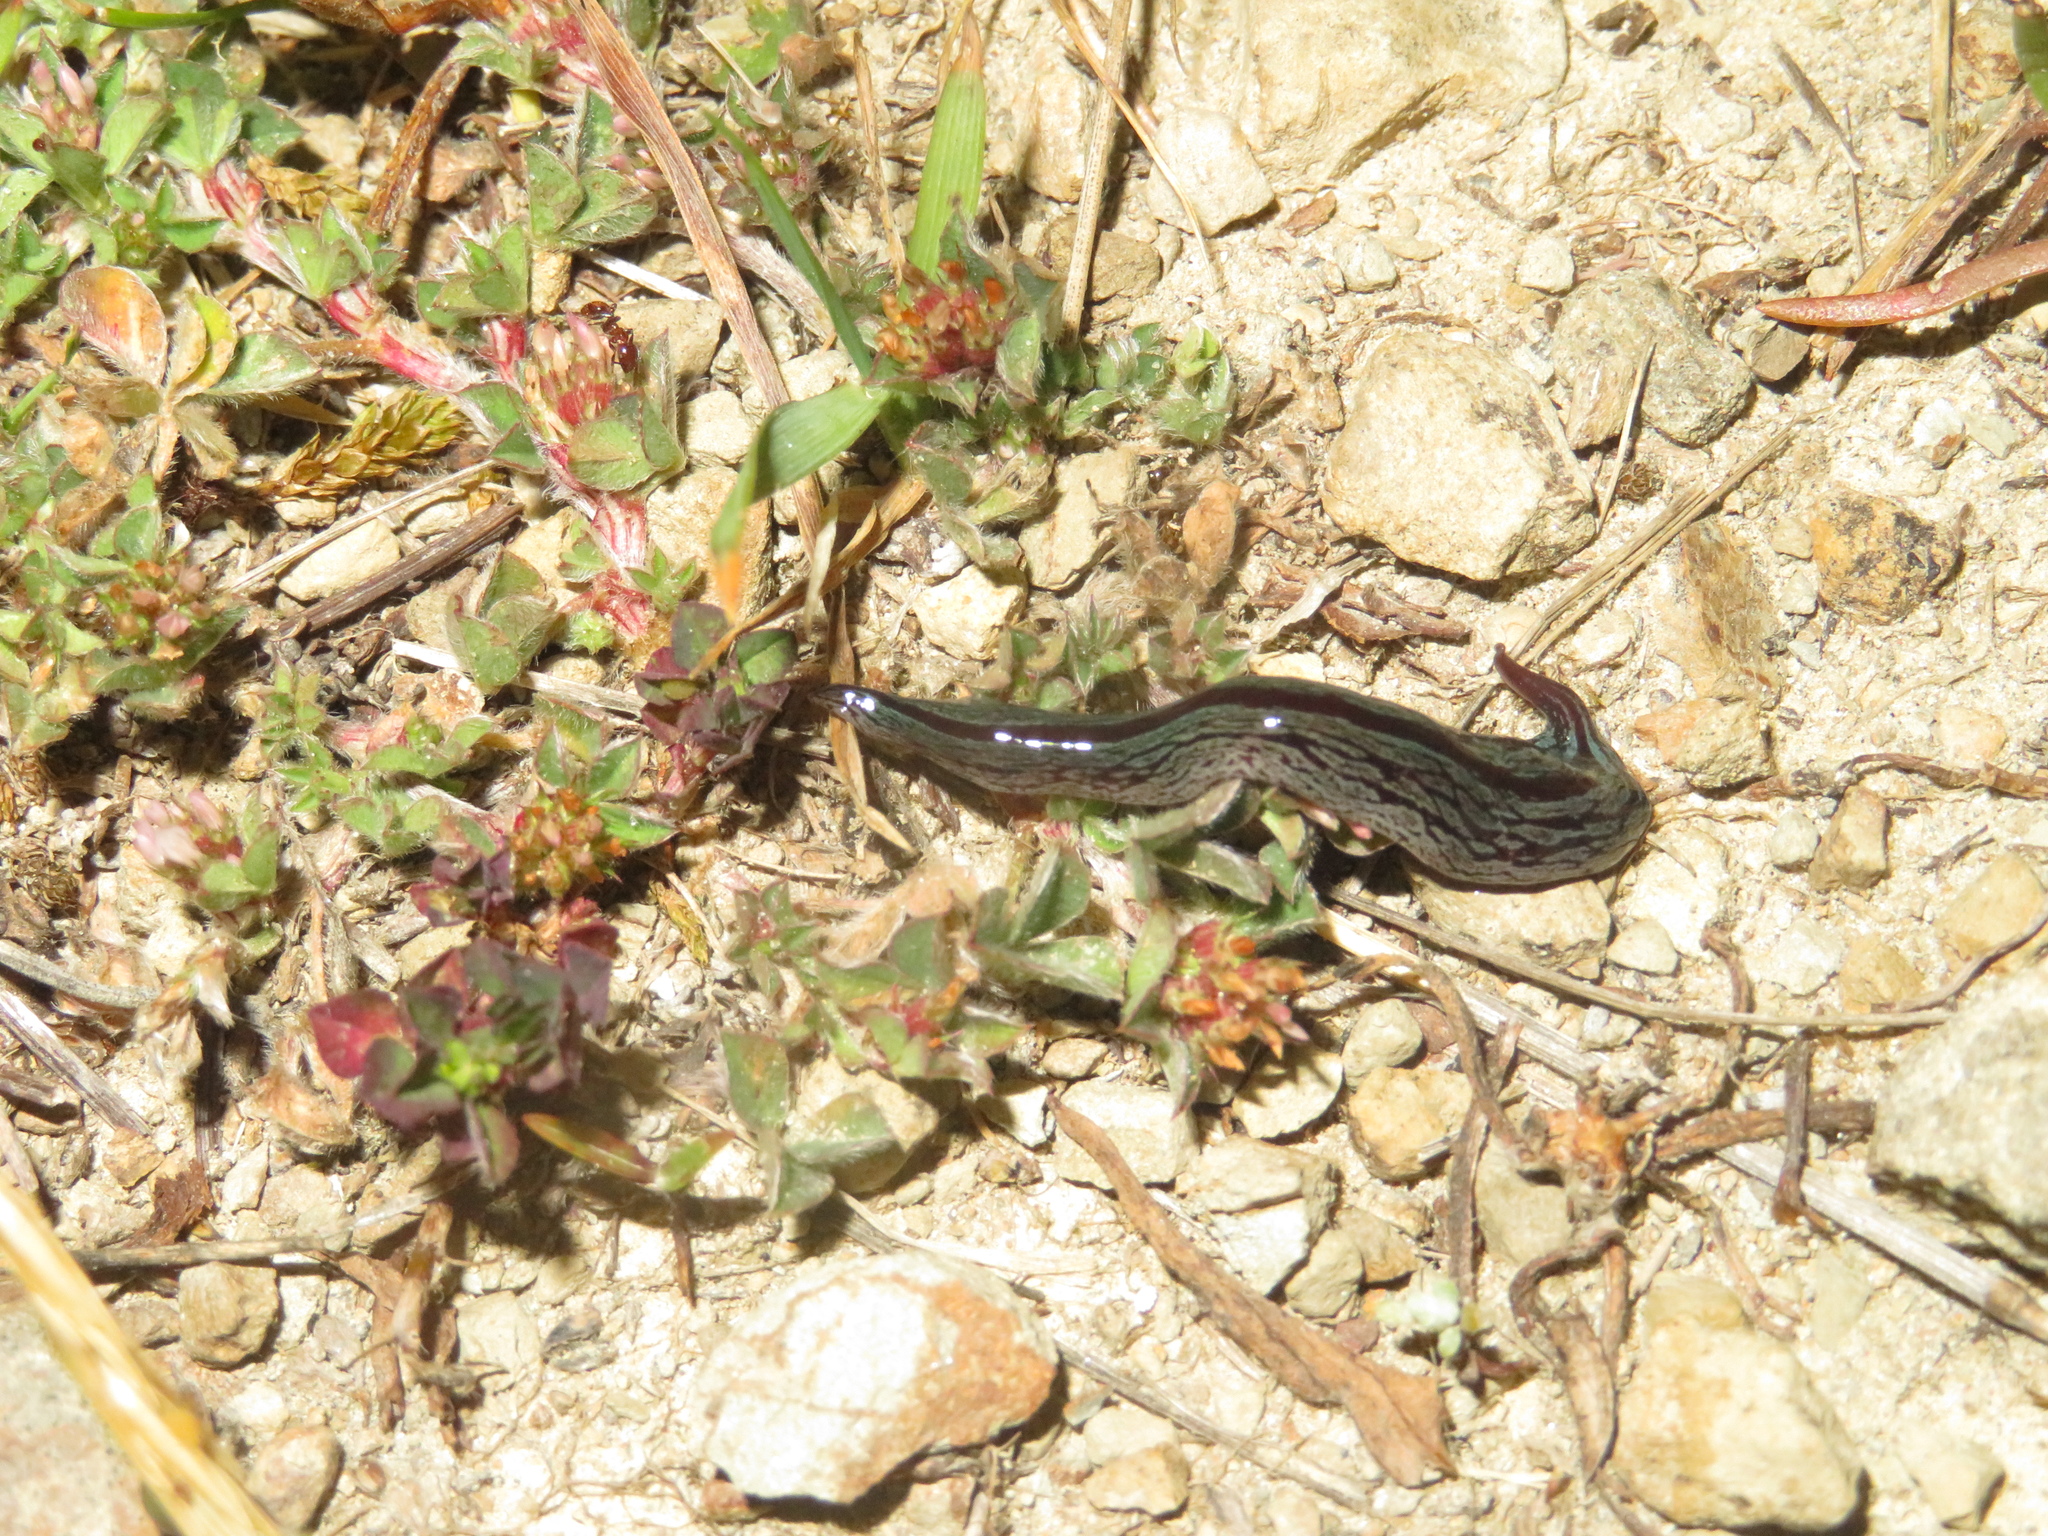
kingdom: Animalia
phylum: Platyhelminthes
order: Tricladida
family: Geoplanidae
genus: Artioposthia
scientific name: Artioposthia exulans
